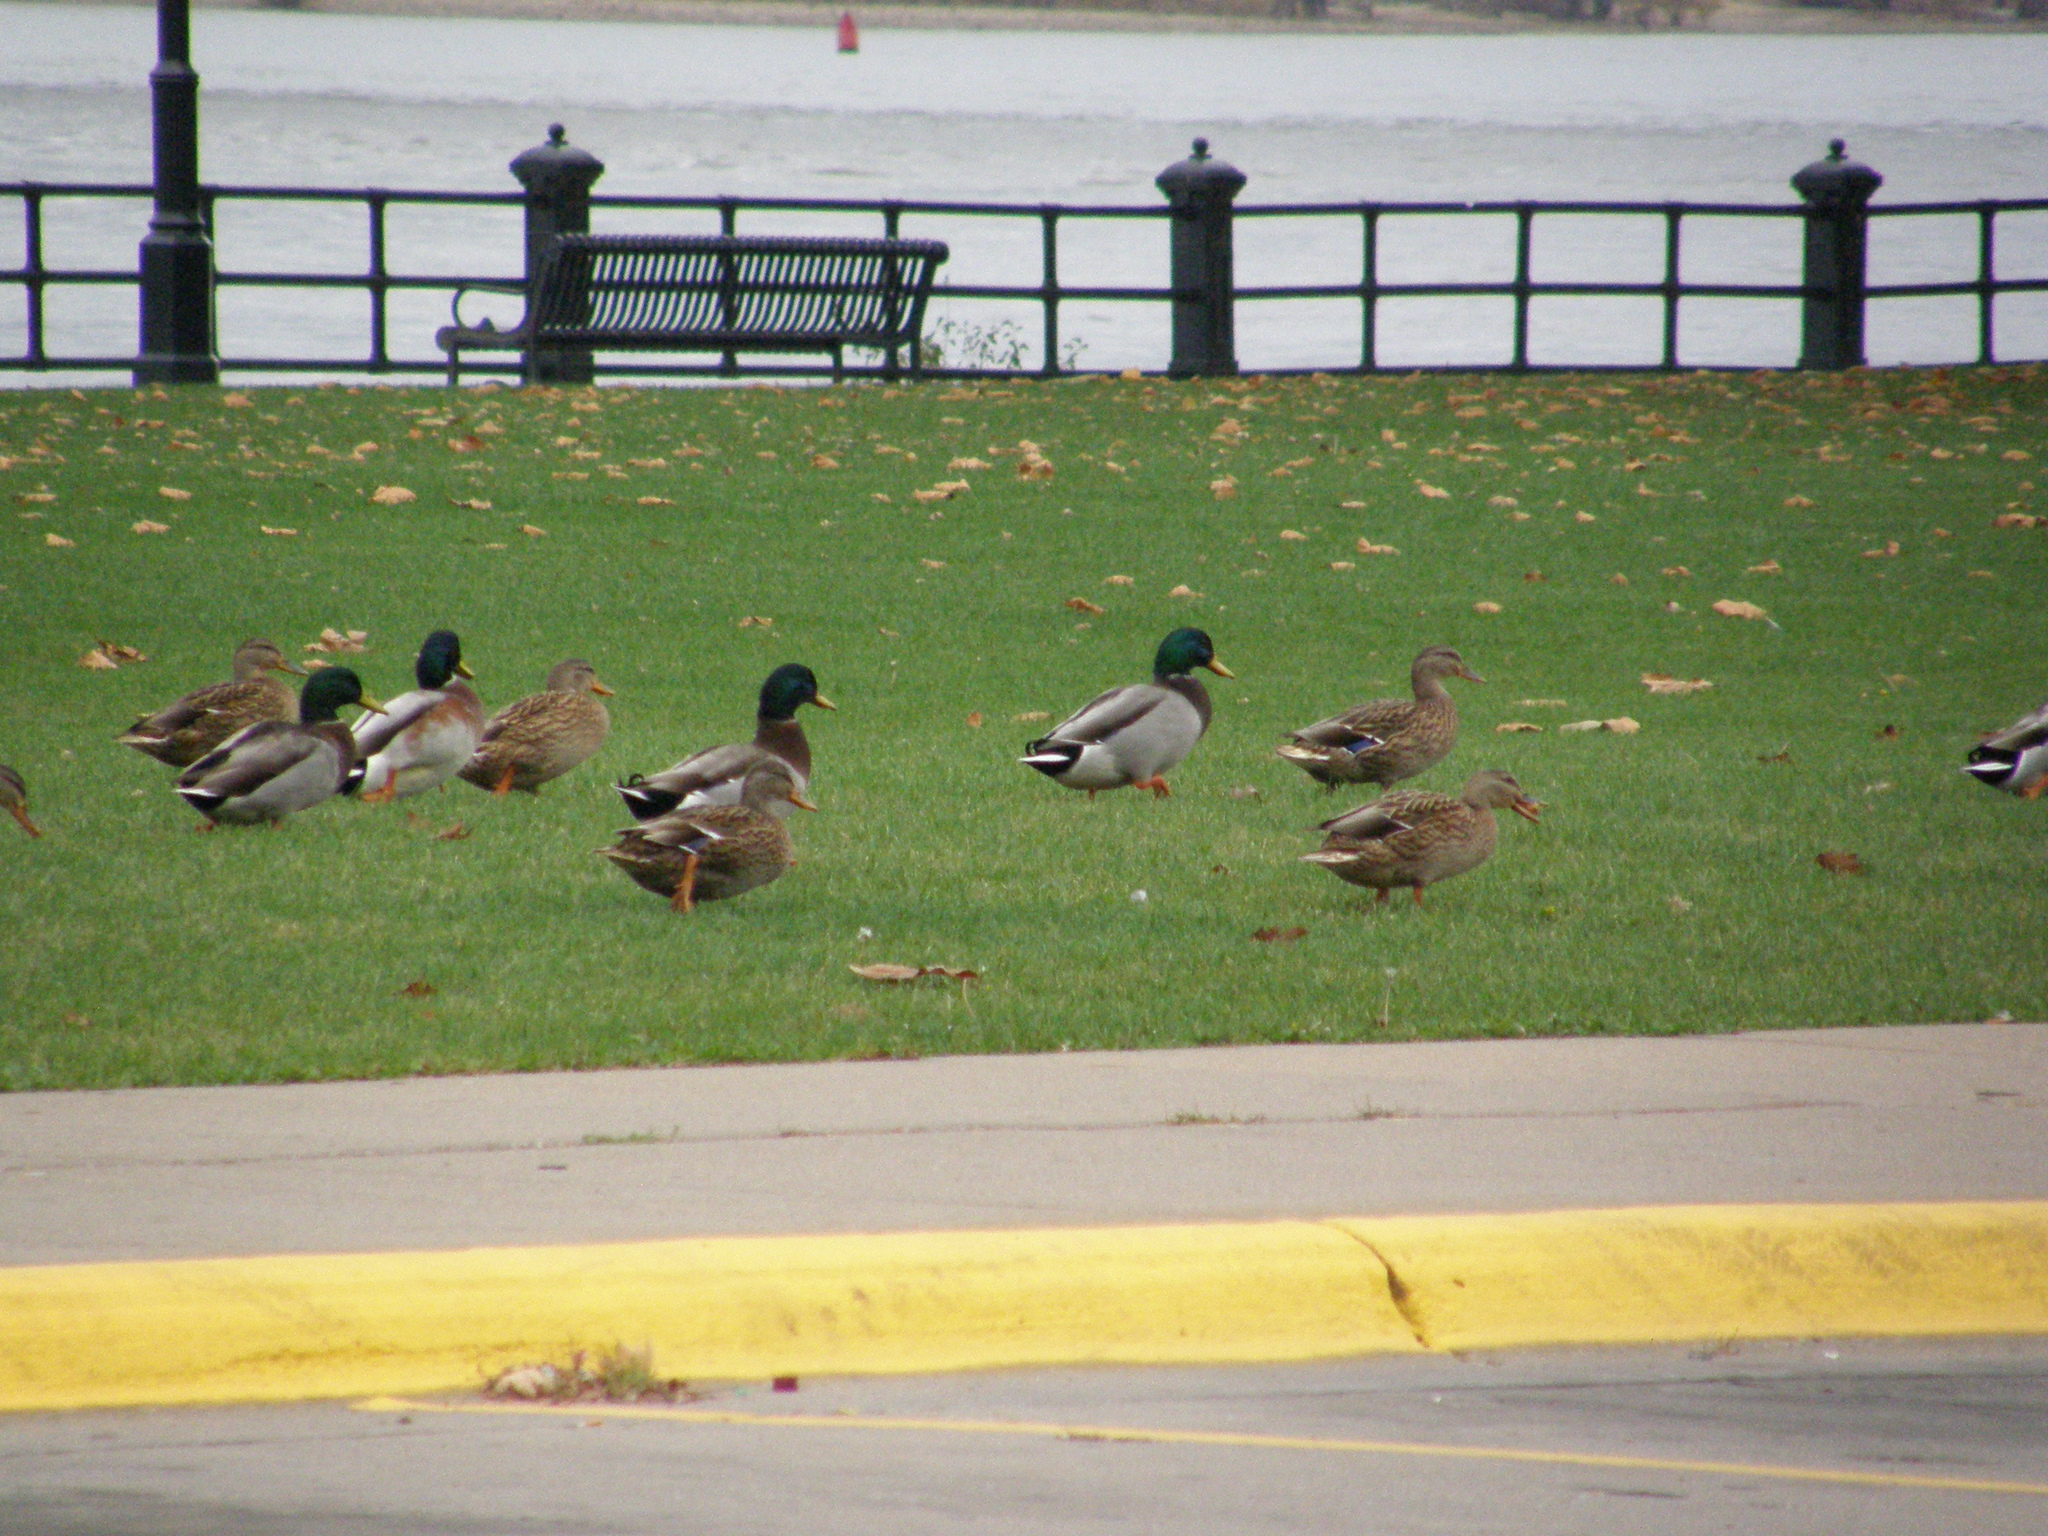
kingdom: Animalia
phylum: Chordata
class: Aves
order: Anseriformes
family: Anatidae
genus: Anas
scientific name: Anas platyrhynchos
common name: Mallard
